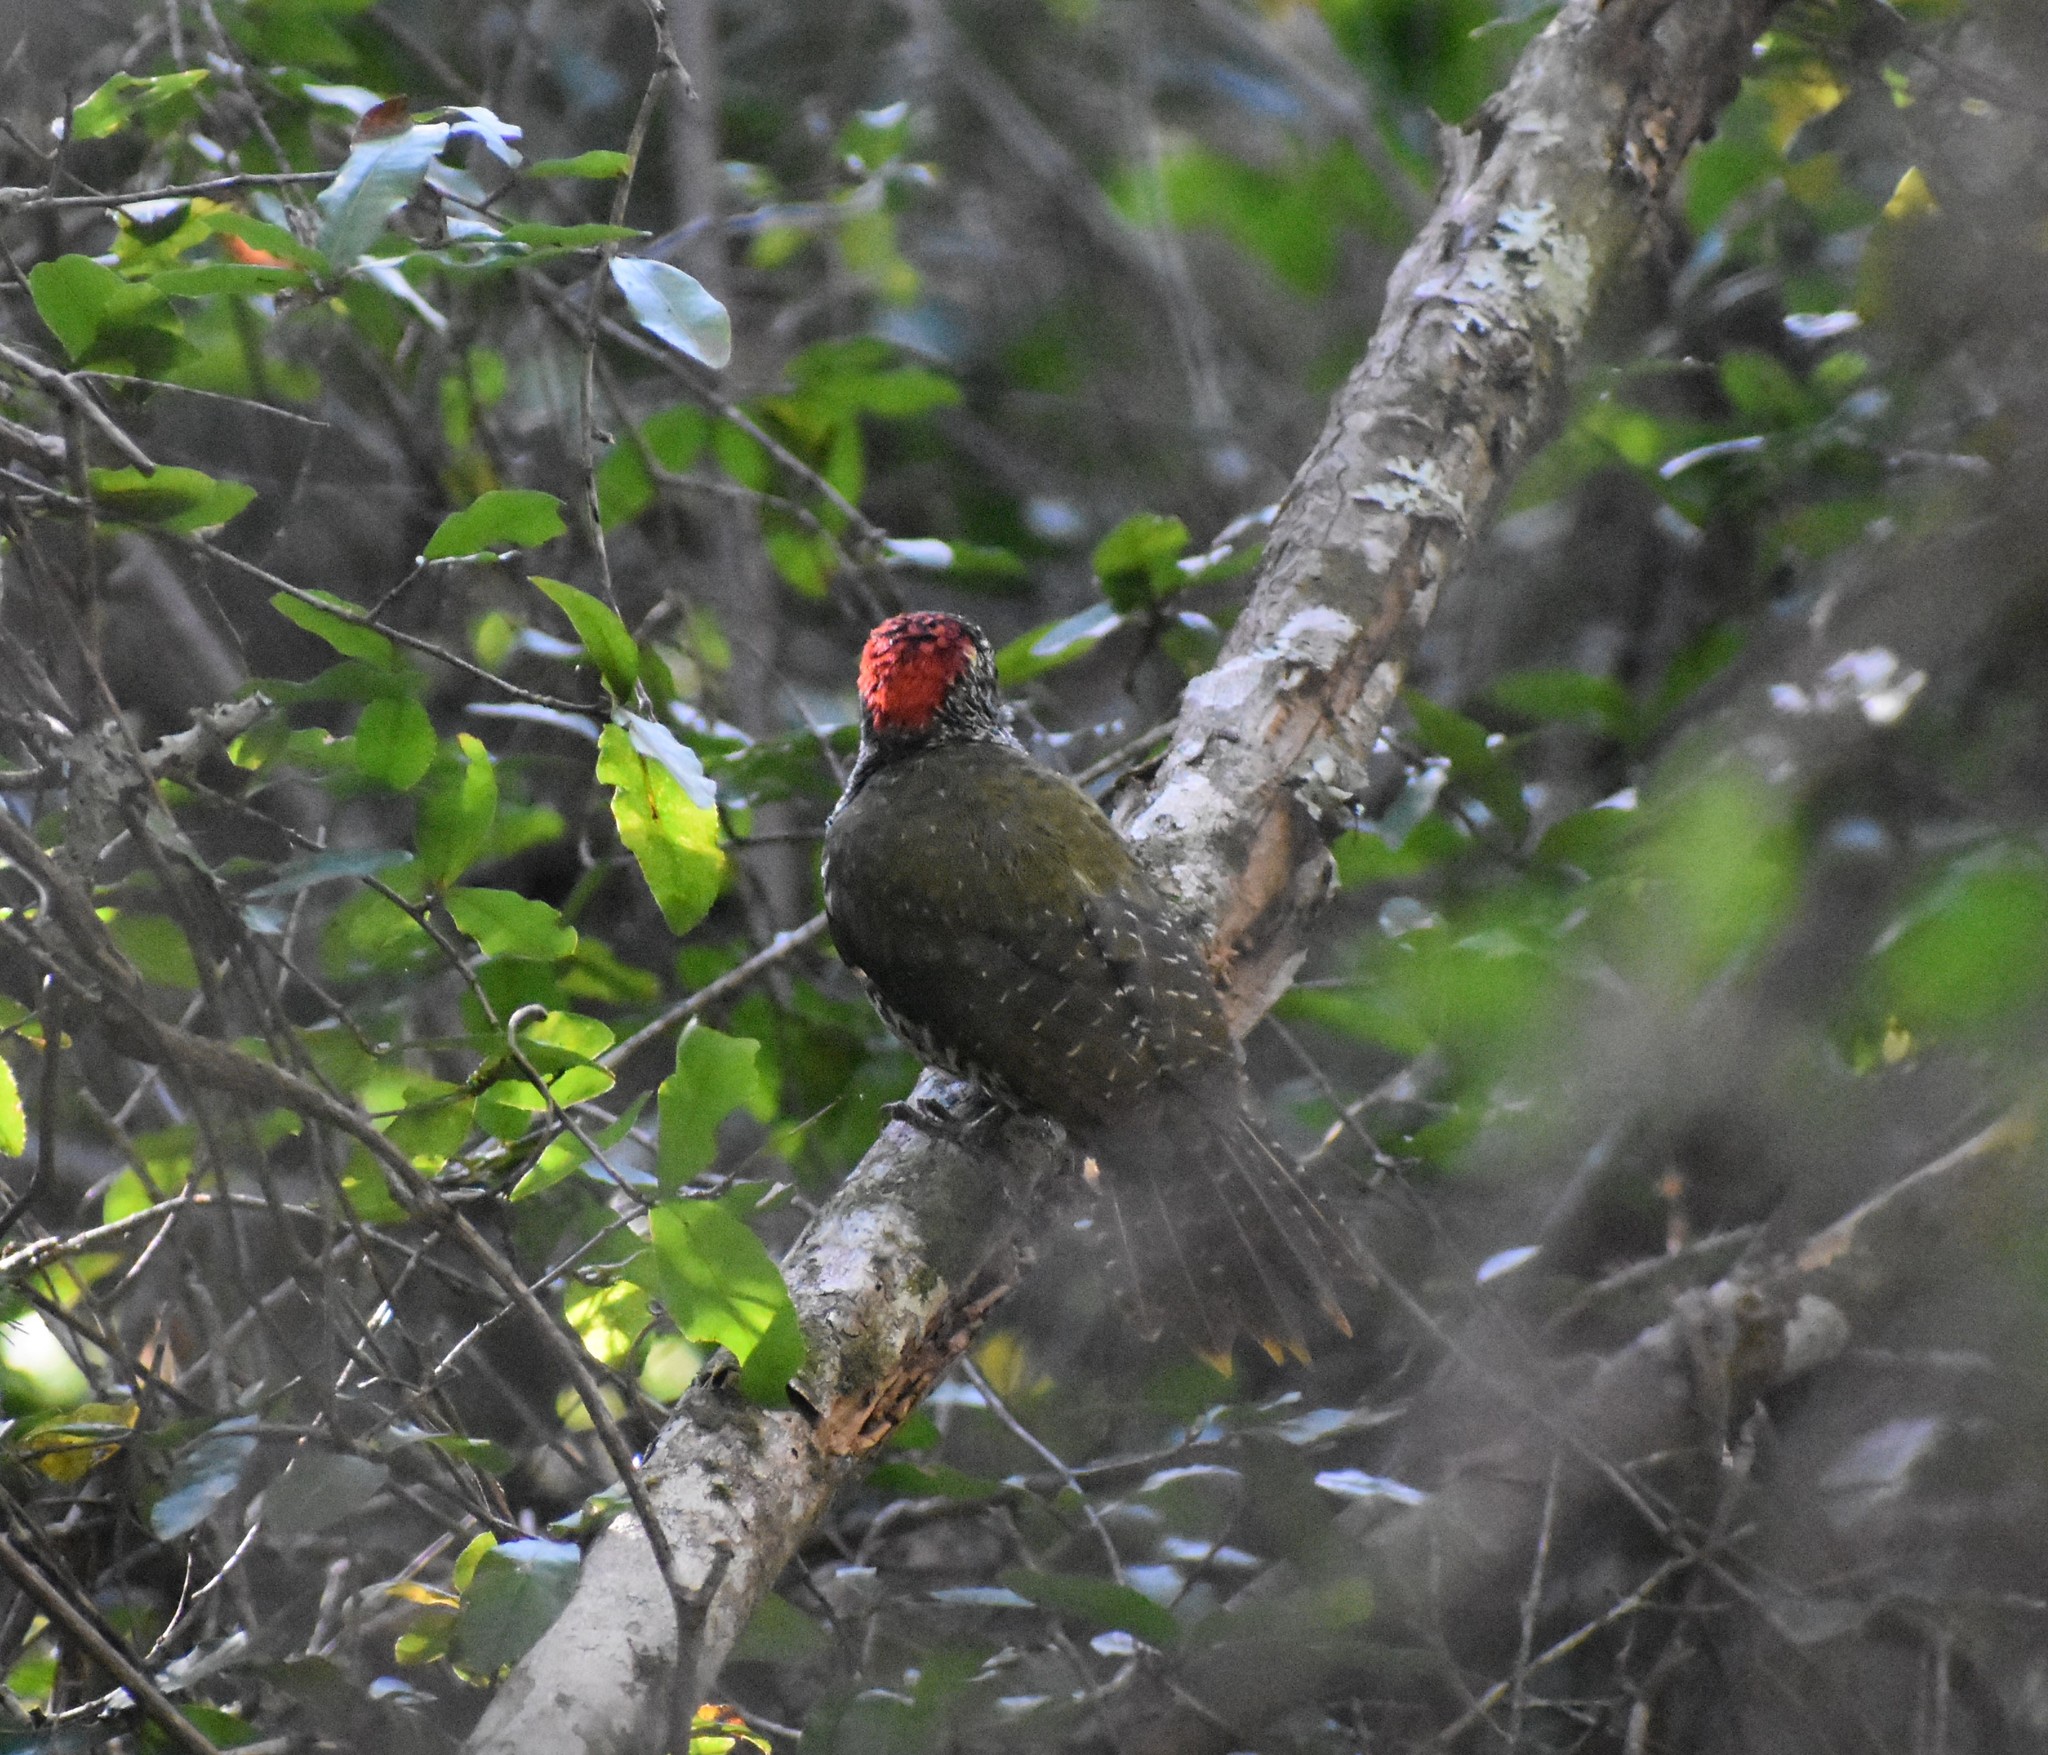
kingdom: Animalia
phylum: Chordata
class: Aves
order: Piciformes
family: Picidae
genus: Campethera
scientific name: Campethera notata
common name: Knysna woodpecker
